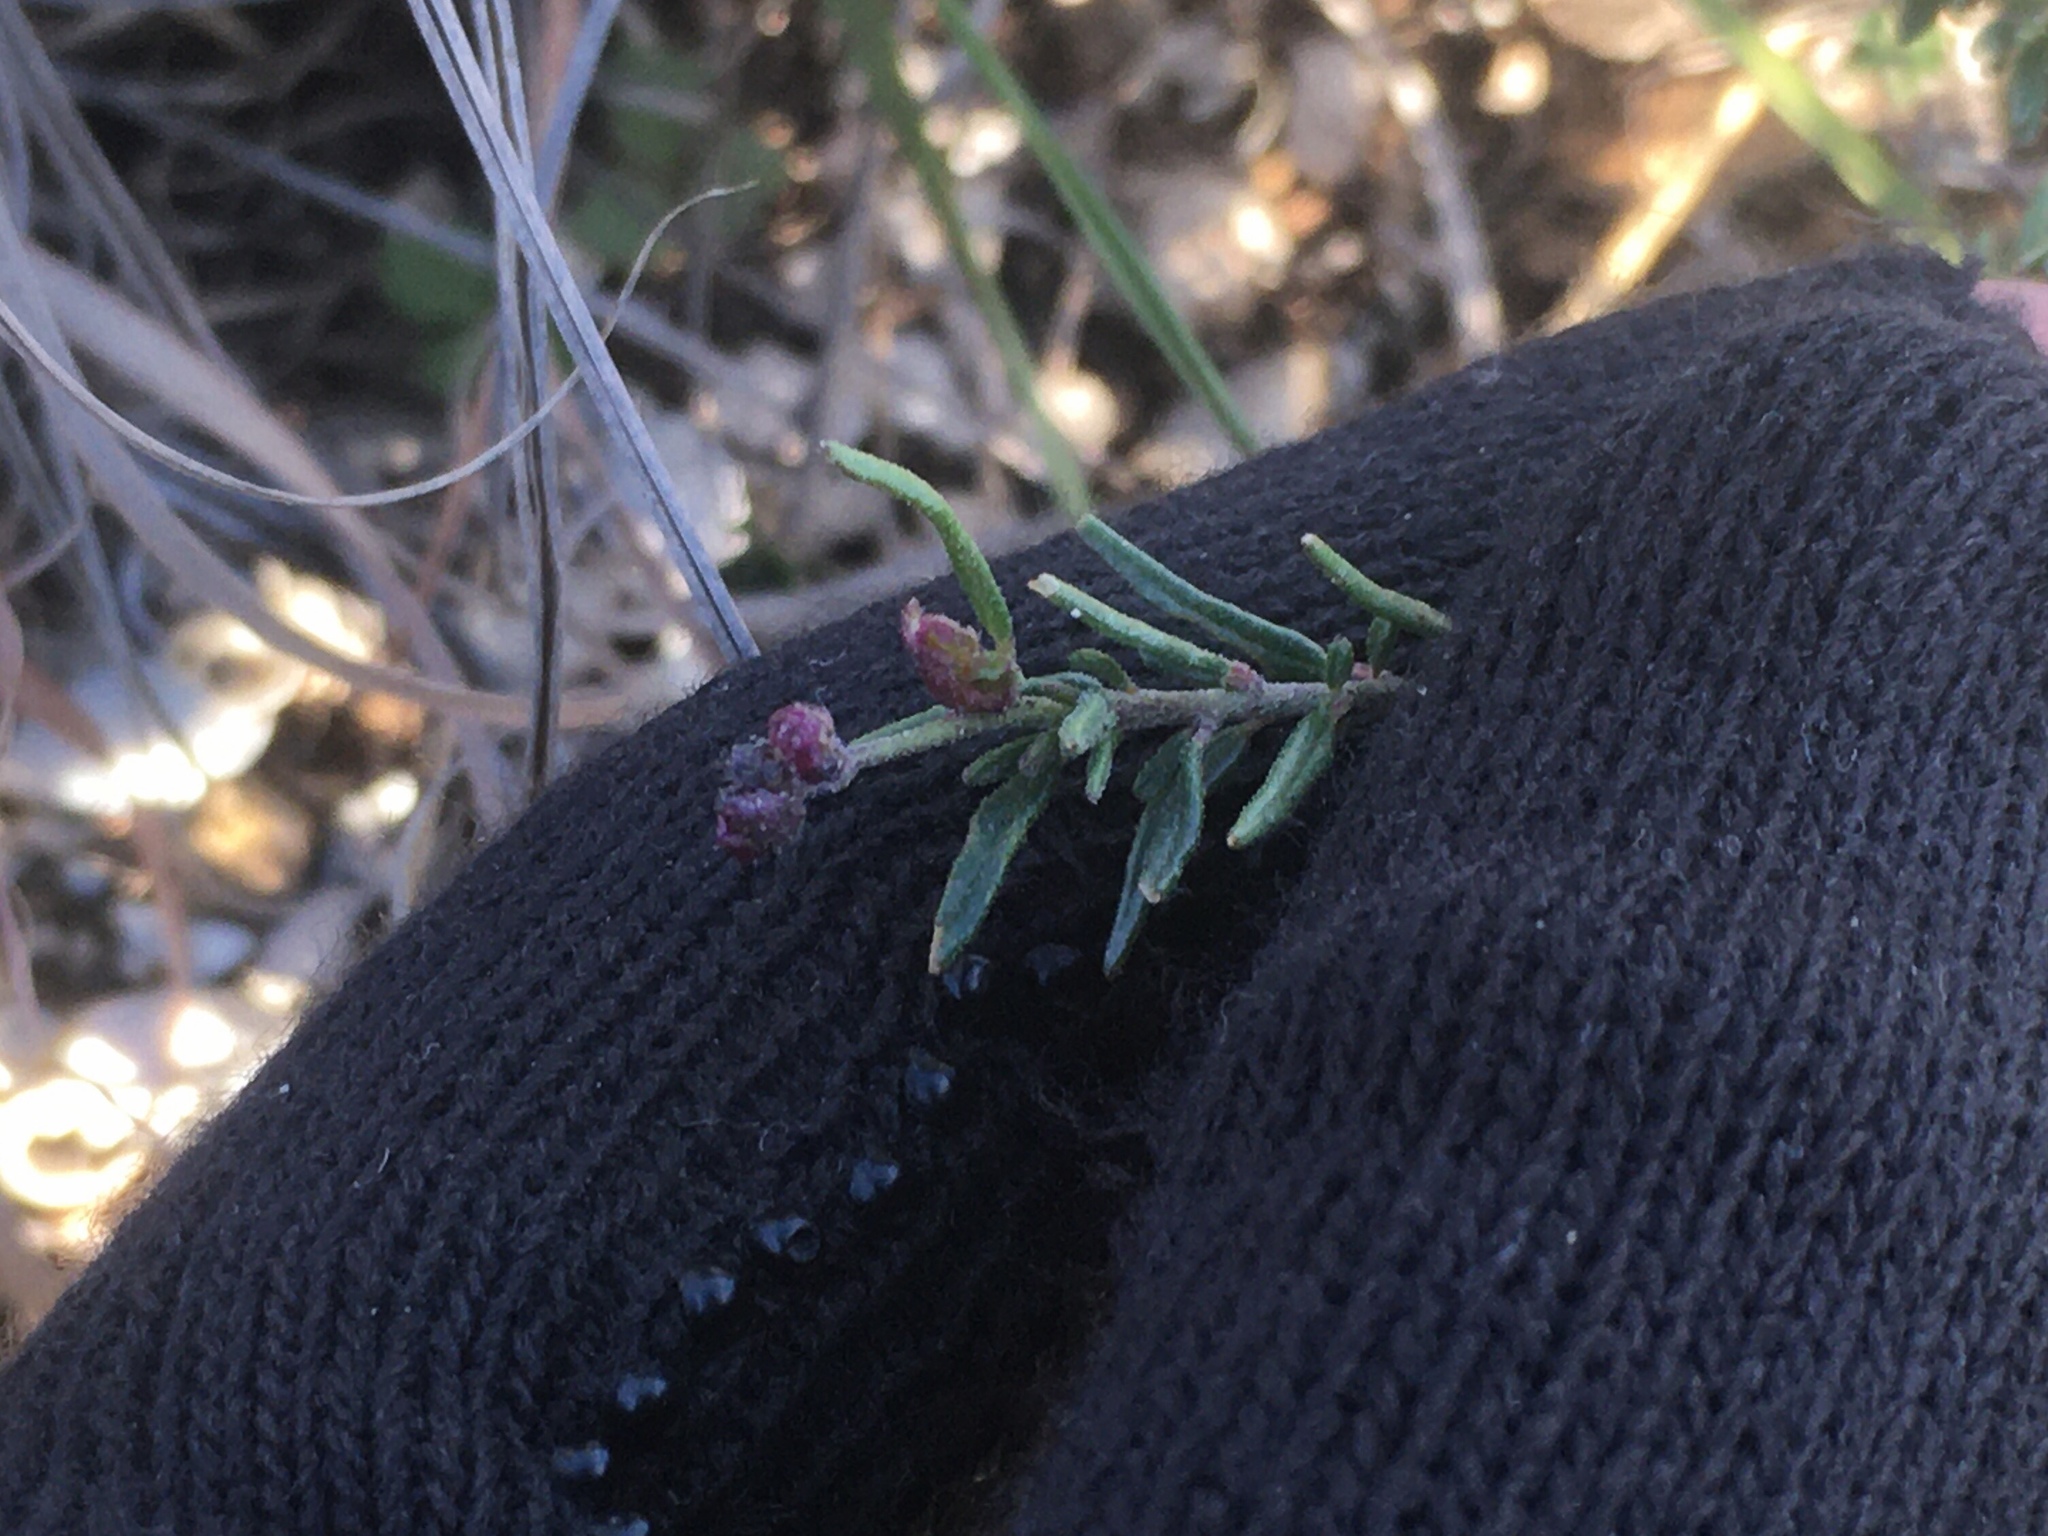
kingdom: Plantae
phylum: Tracheophyta
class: Magnoliopsida
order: Lamiales
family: Lamiaceae
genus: Hedeoma
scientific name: Hedeoma multiflora
